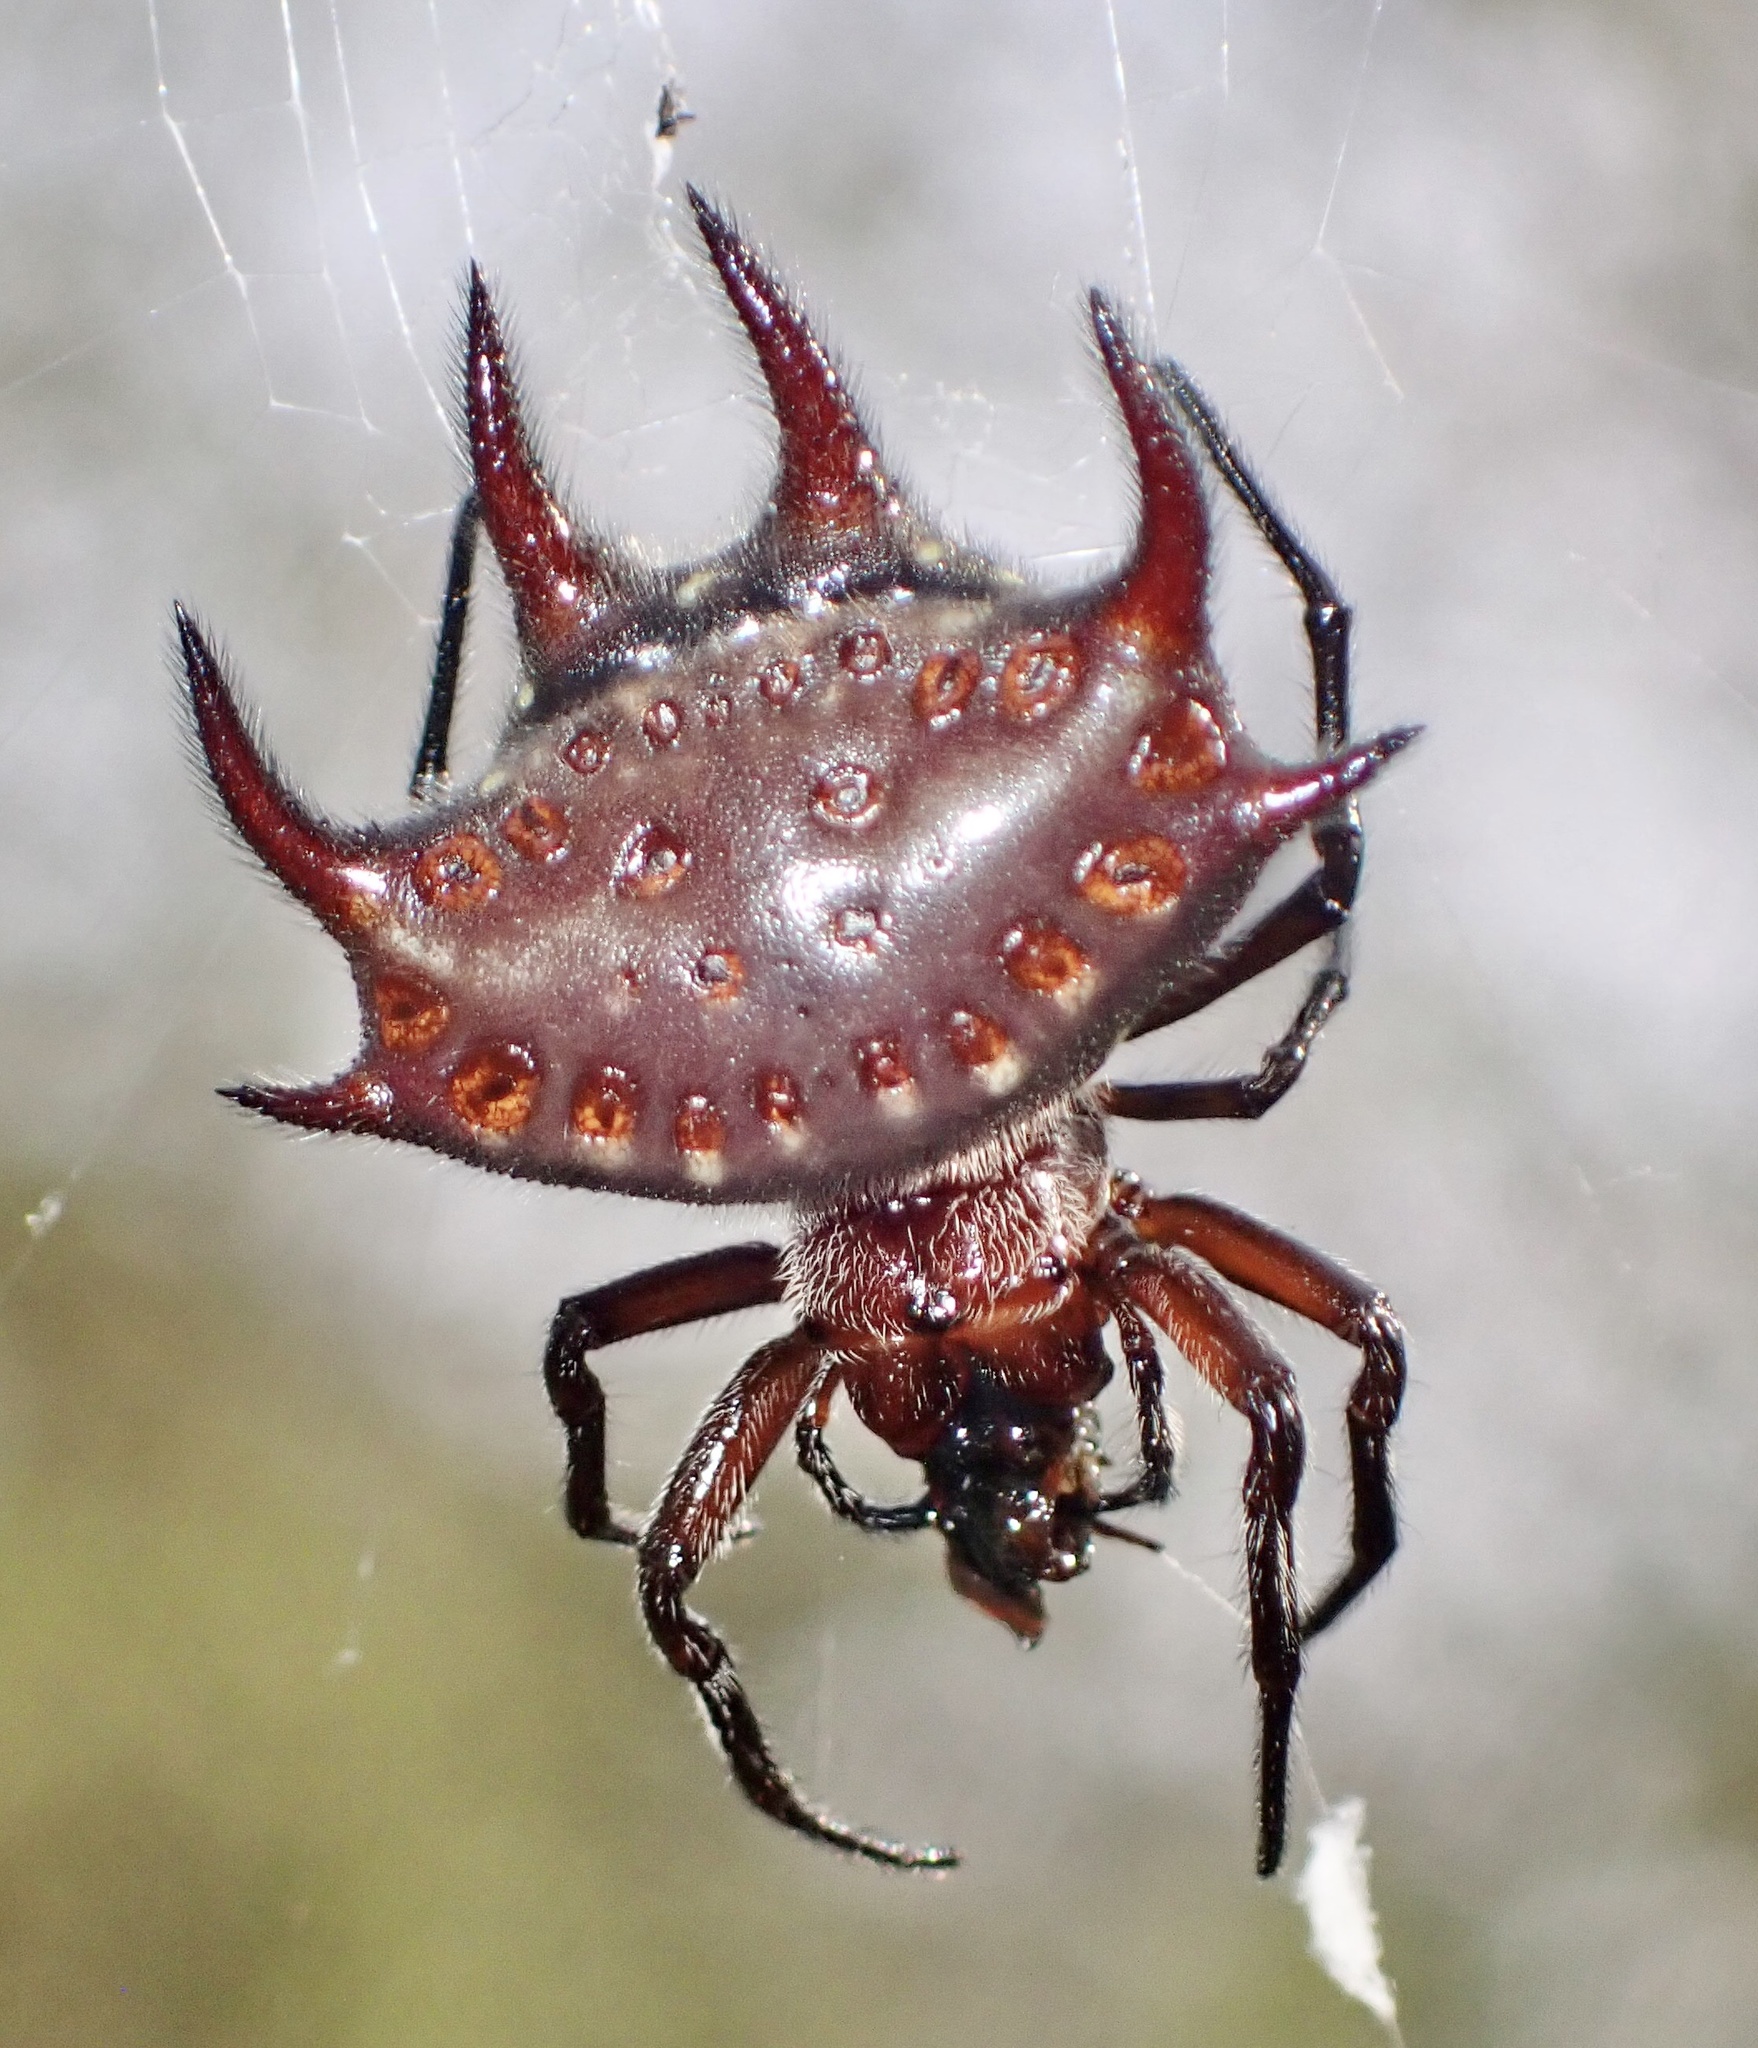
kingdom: Animalia
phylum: Arthropoda
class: Arachnida
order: Araneae
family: Araneidae
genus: Gasteracantha
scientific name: Gasteracantha curvispina
